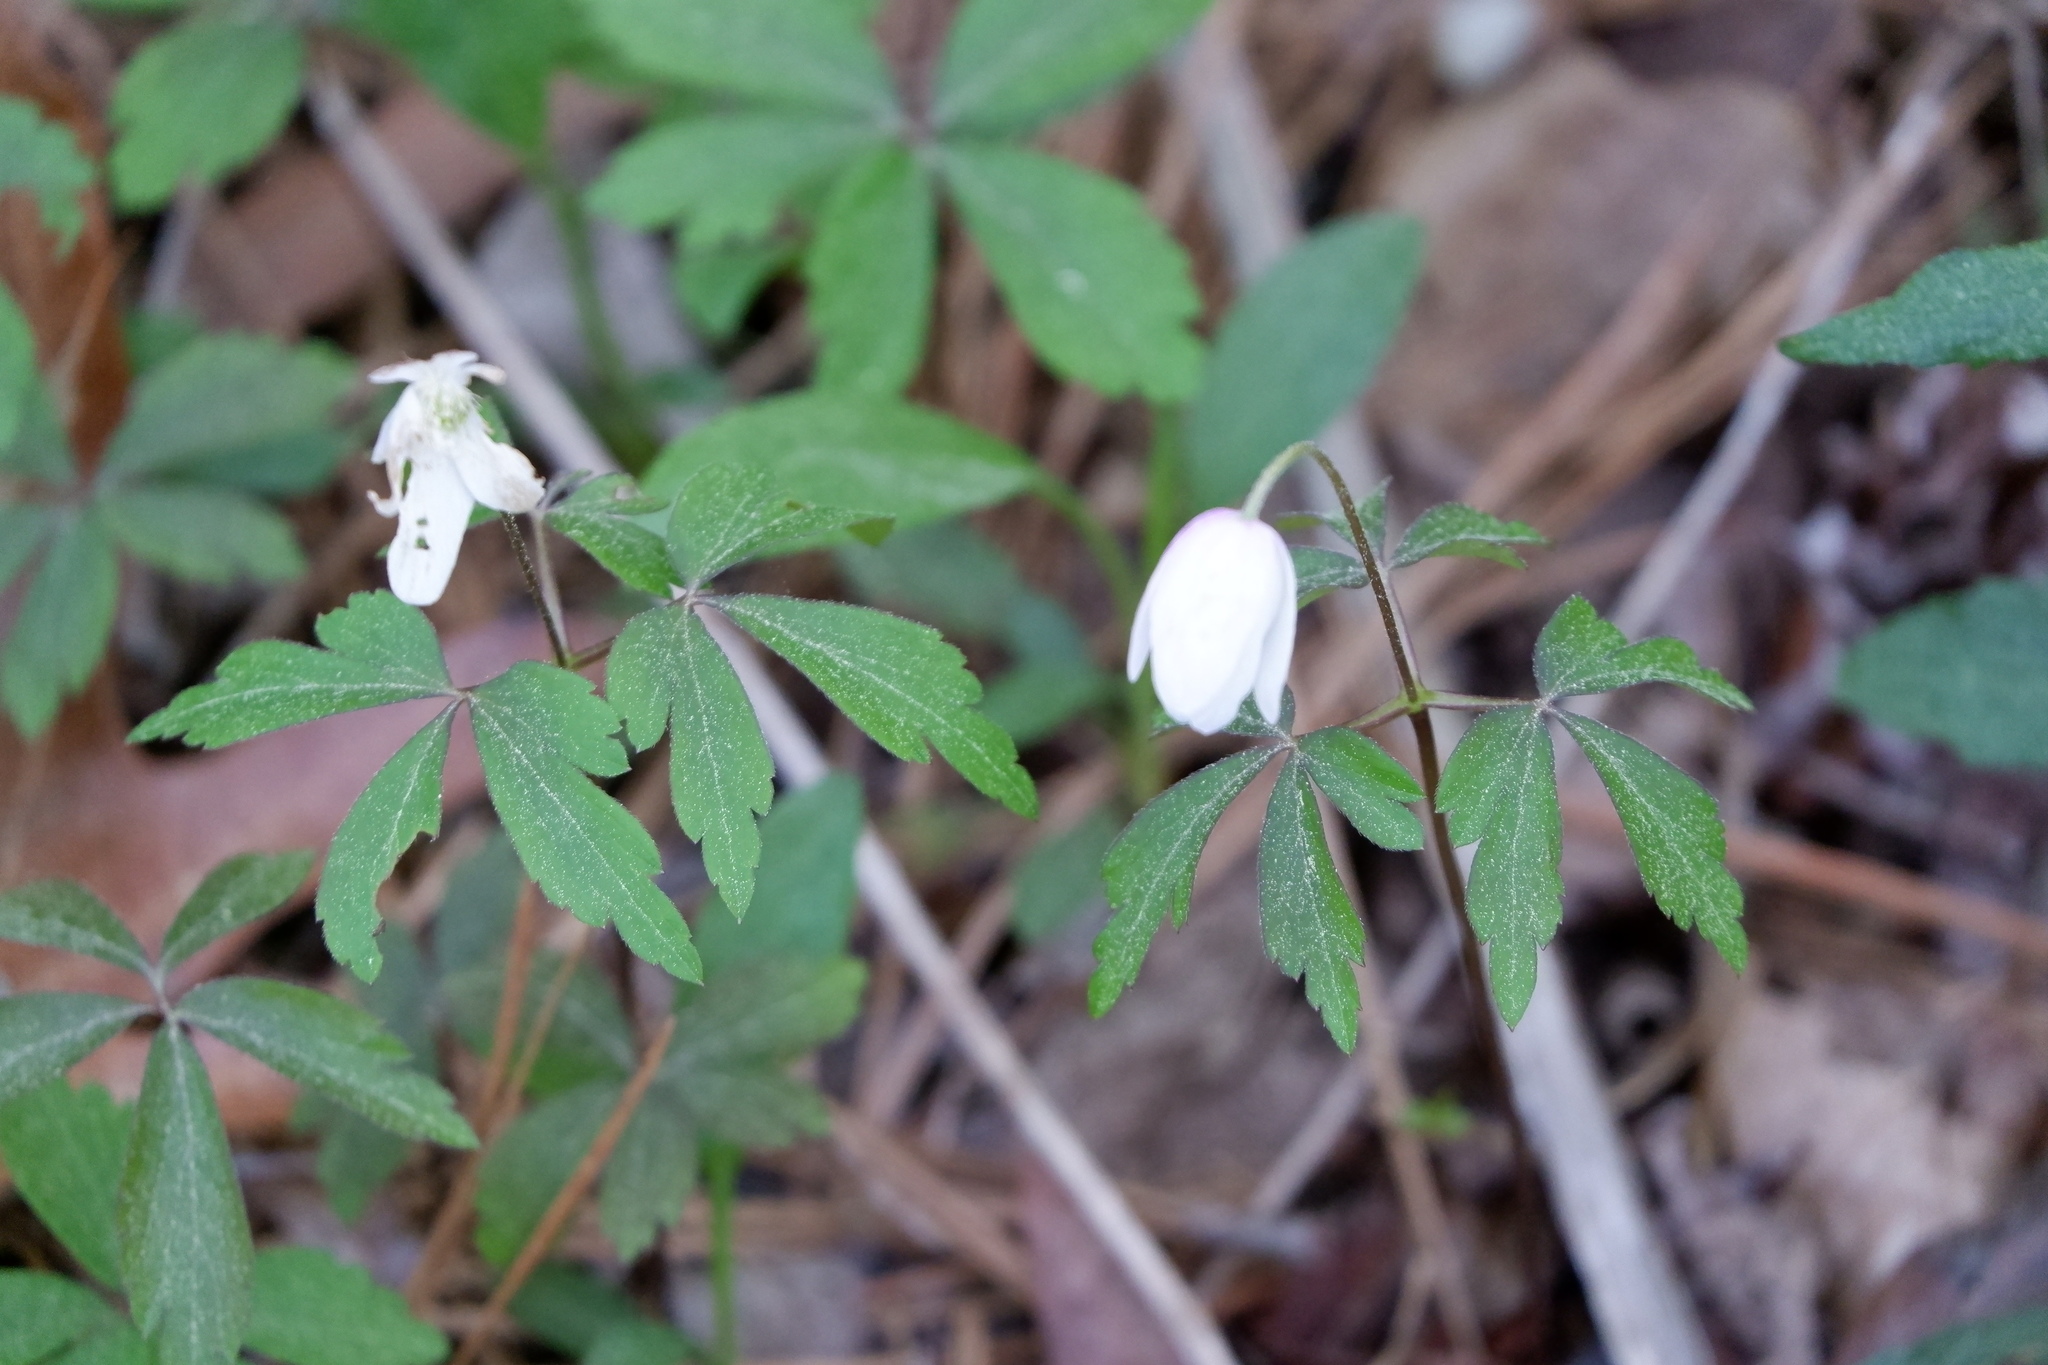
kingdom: Plantae
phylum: Tracheophyta
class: Magnoliopsida
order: Ranunculales
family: Ranunculaceae
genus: Anemone
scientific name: Anemone quinquefolia
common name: Wood anemone
